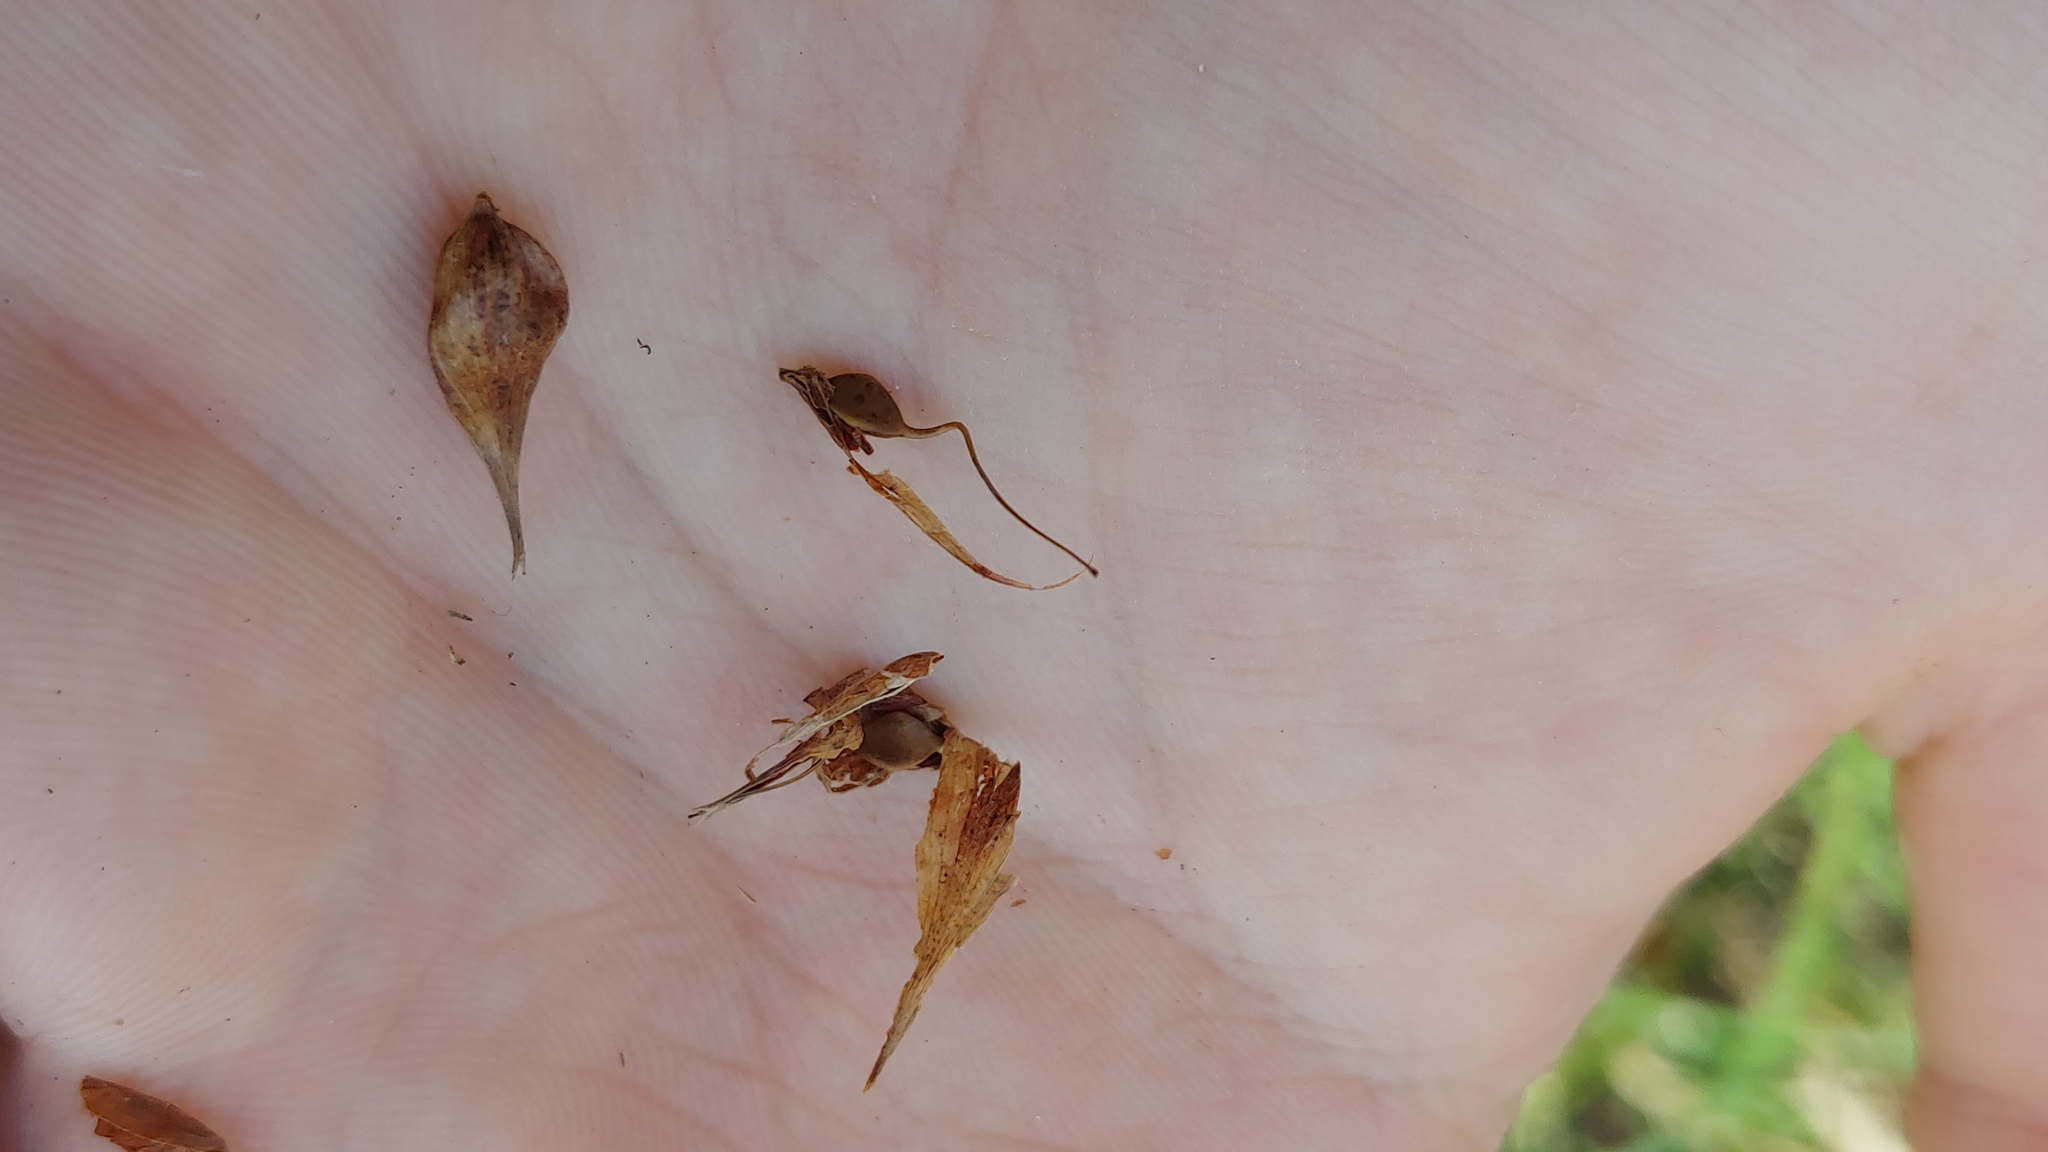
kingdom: Plantae
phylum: Tracheophyta
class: Liliopsida
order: Poales
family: Cyperaceae
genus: Carex
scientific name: Carex lupulina
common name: Hop sedge
